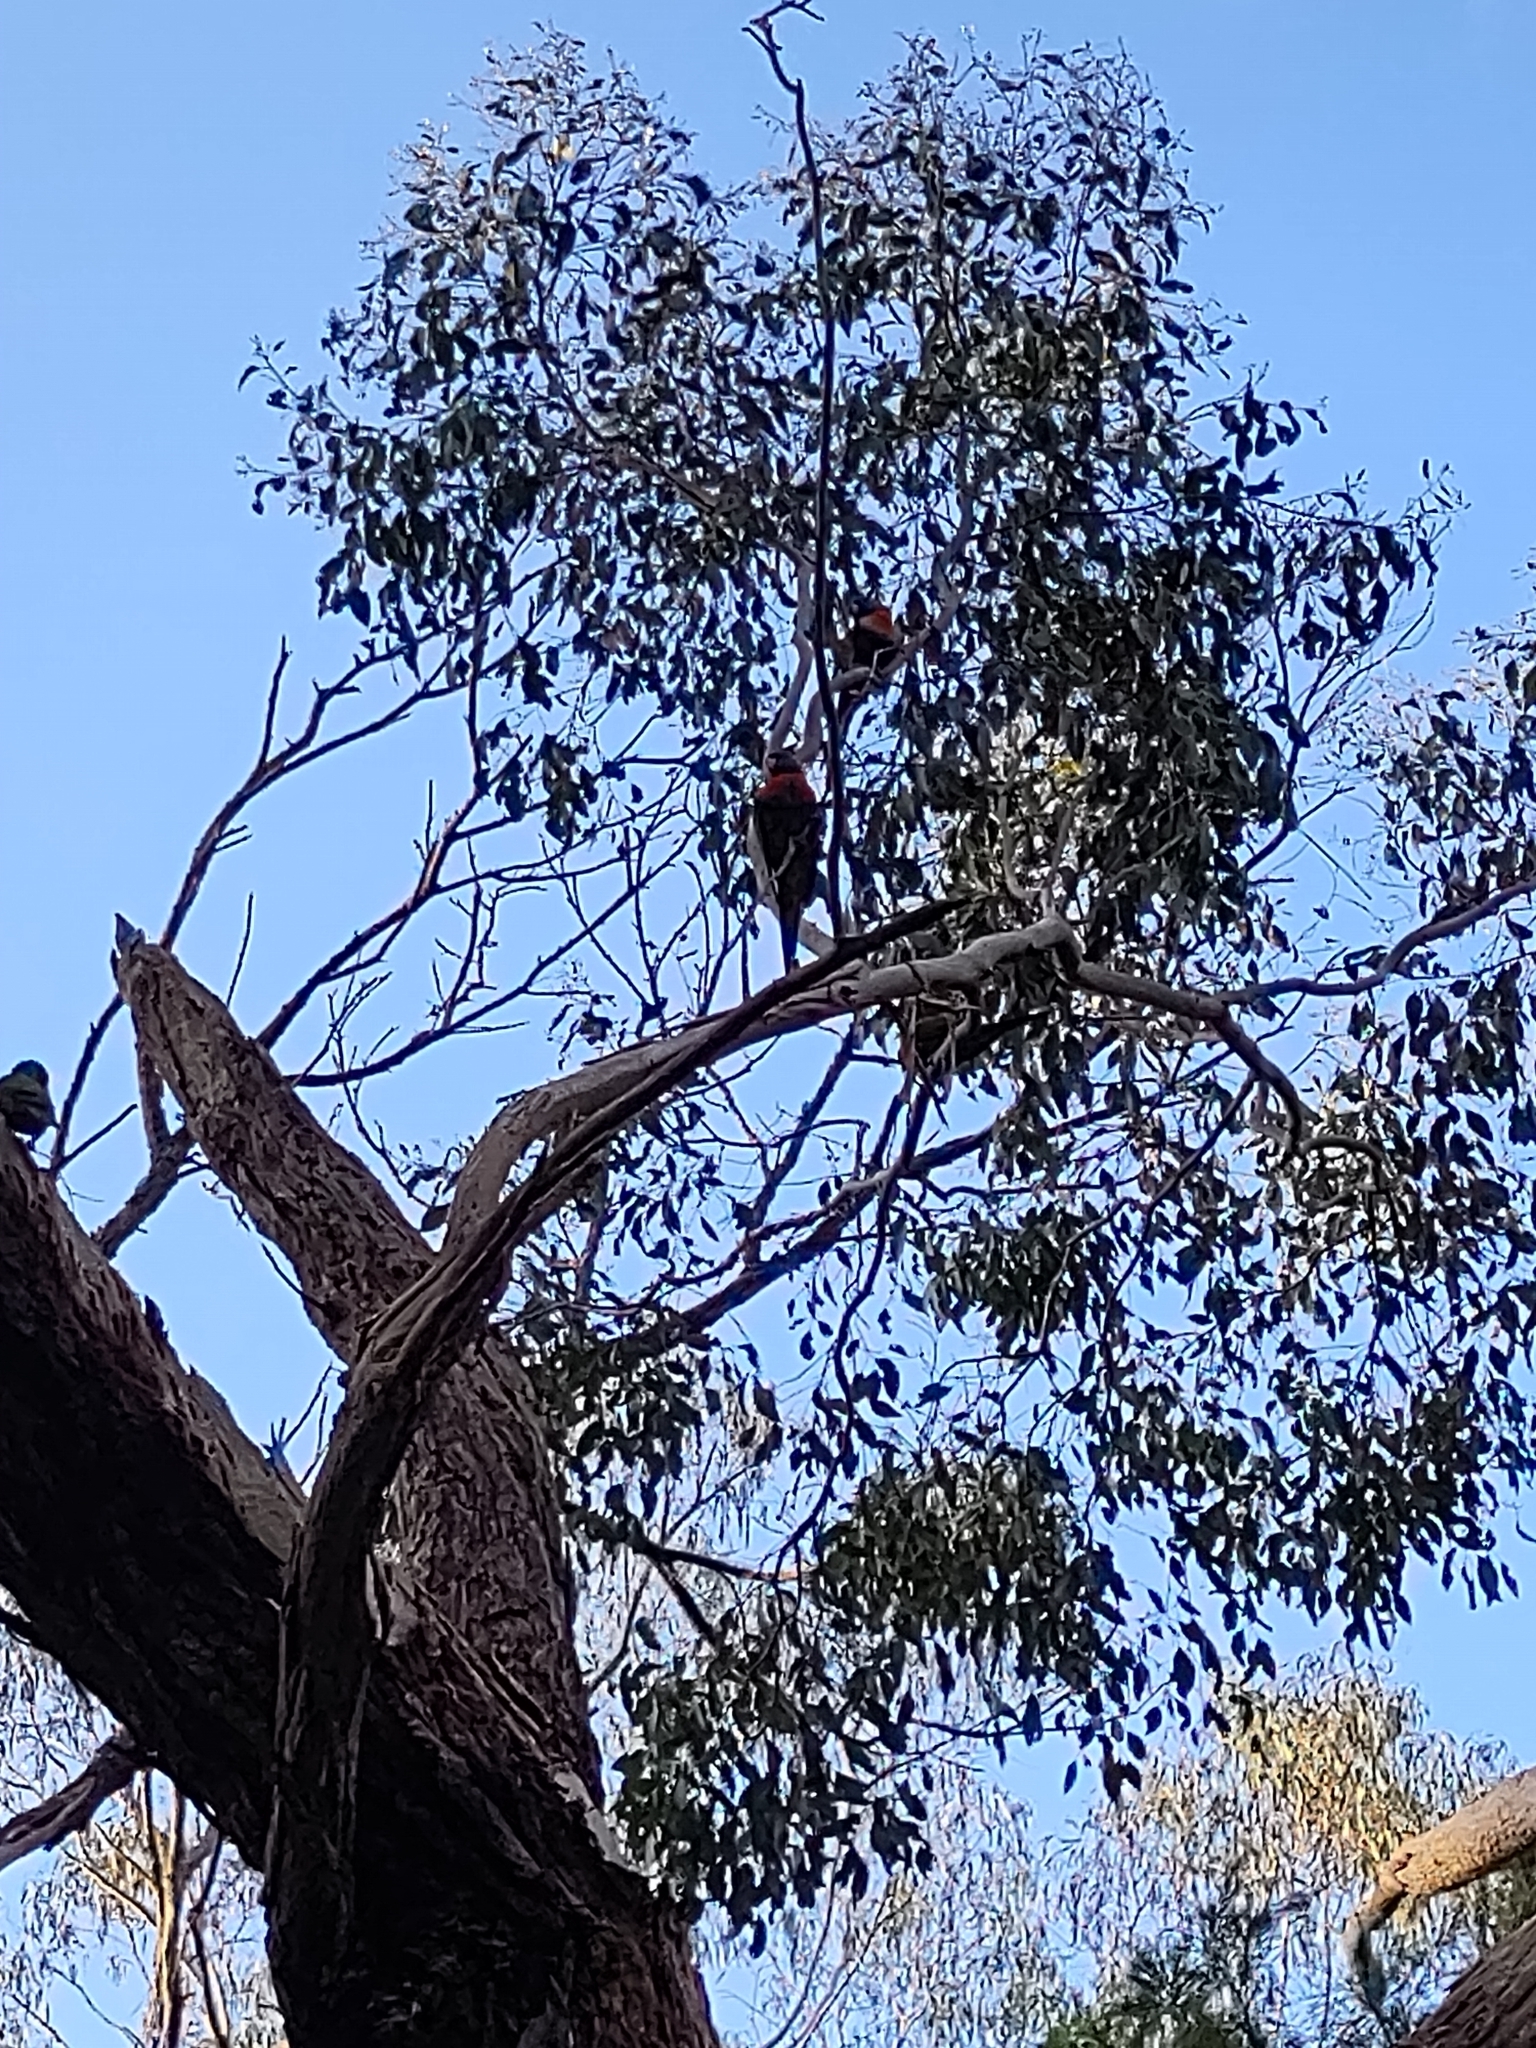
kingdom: Animalia
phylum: Chordata
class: Aves
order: Psittaciformes
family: Psittacidae
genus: Trichoglossus
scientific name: Trichoglossus haematodus
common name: Coconut lorikeet
